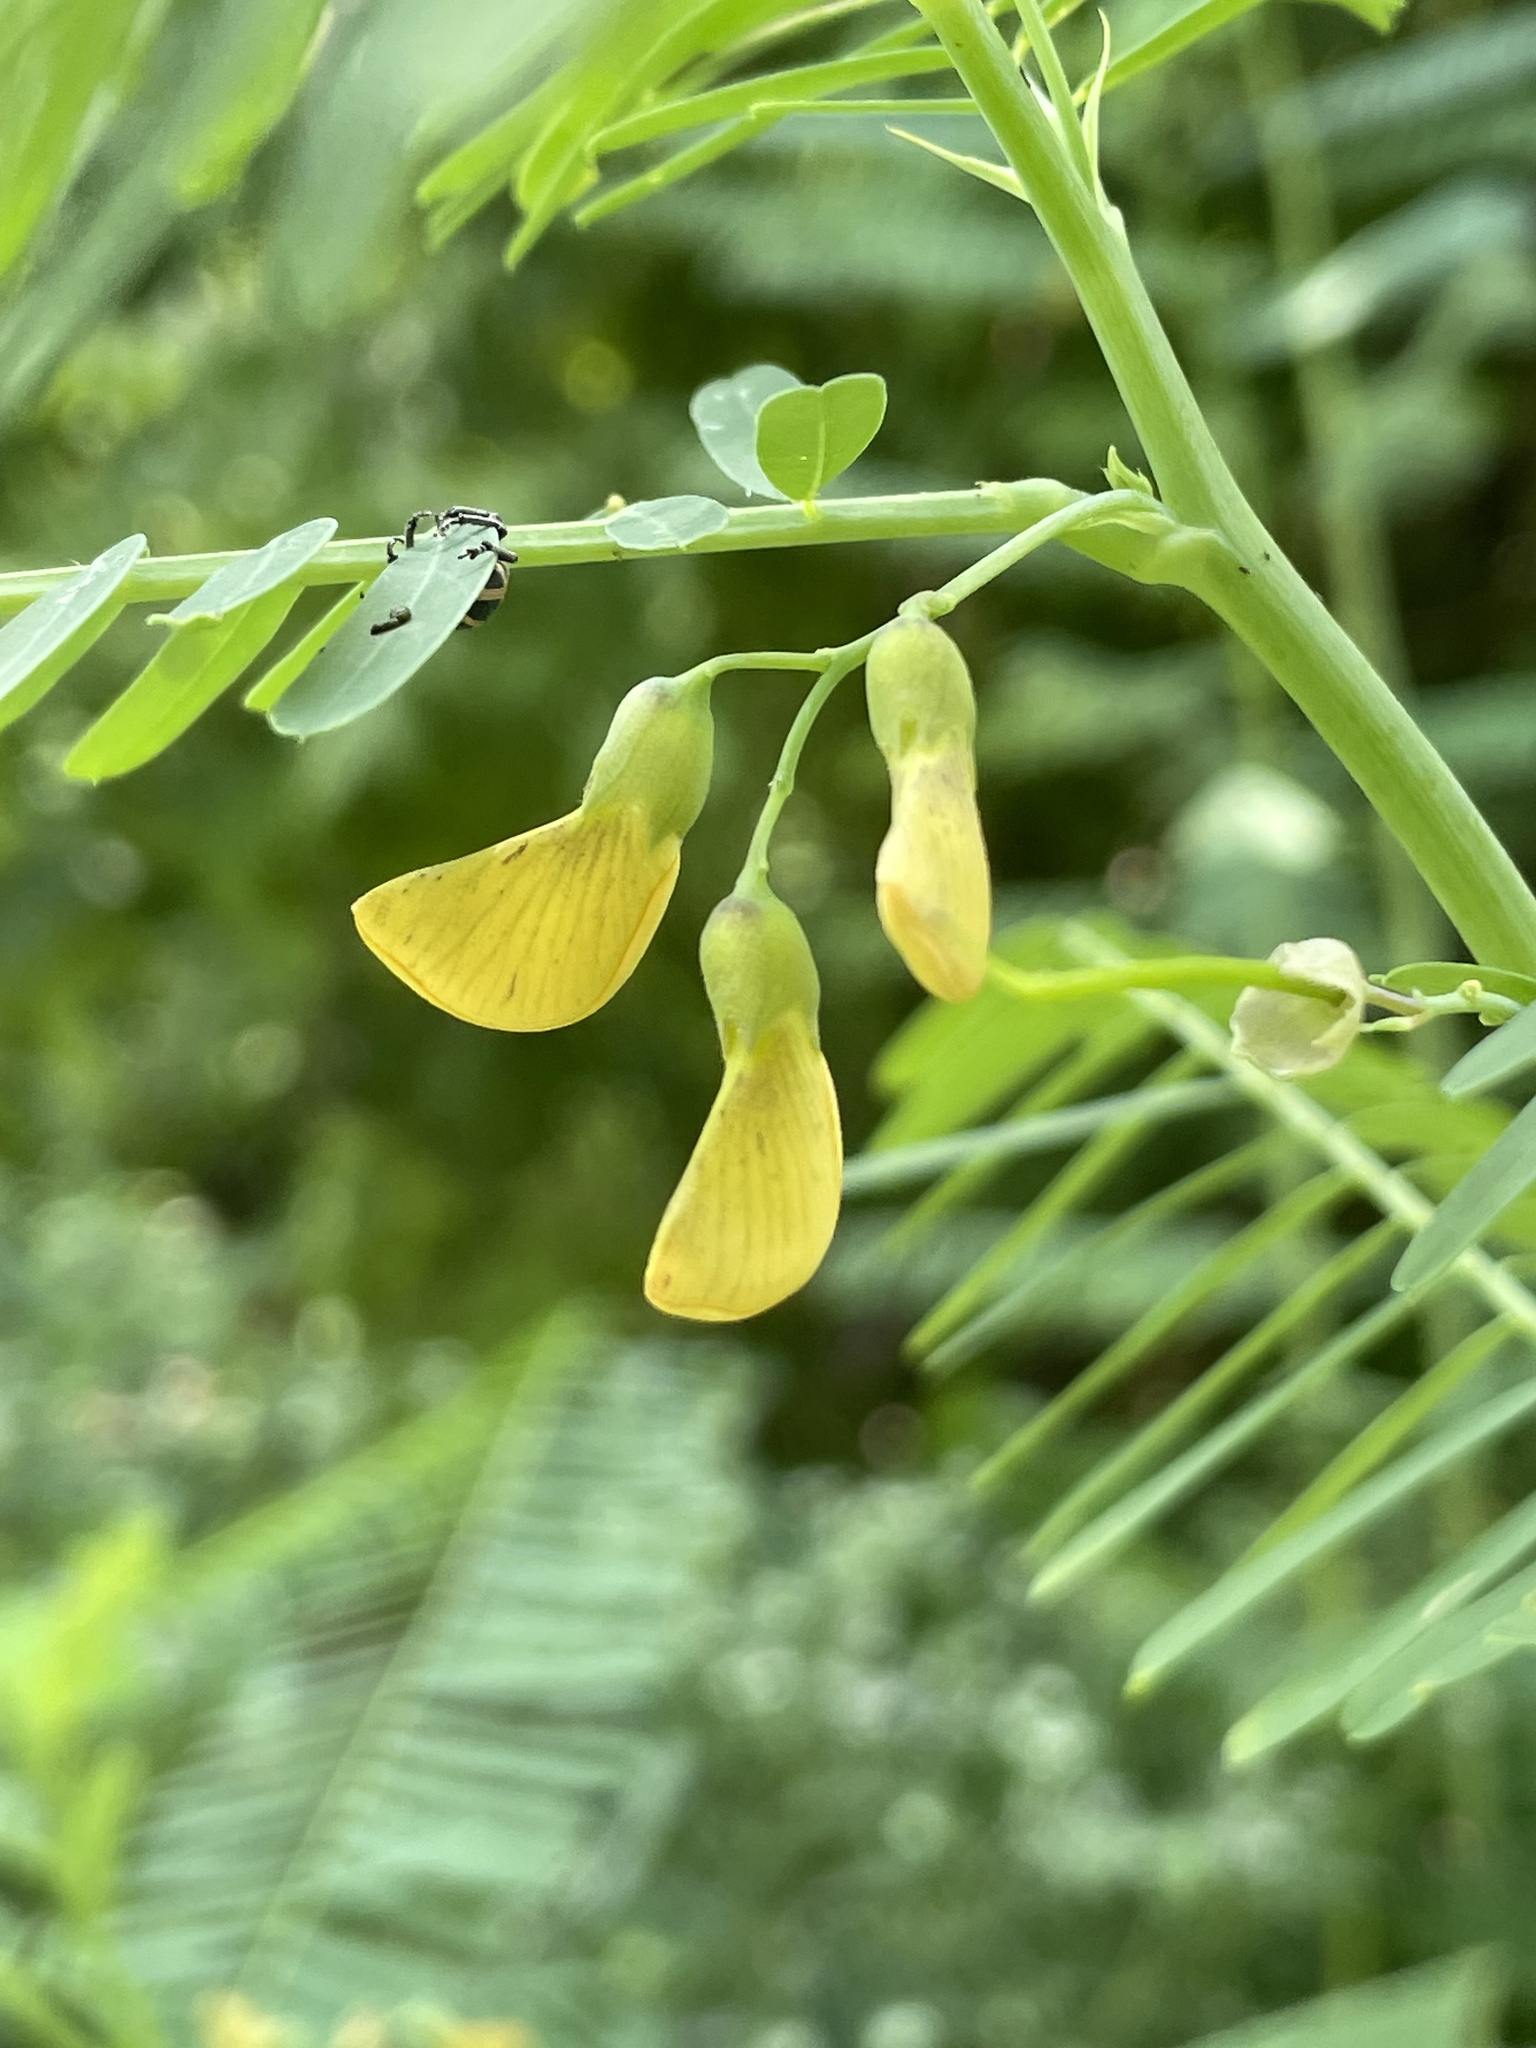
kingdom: Plantae
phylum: Tracheophyta
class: Magnoliopsida
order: Fabales
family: Fabaceae
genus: Sesbania
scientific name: Sesbania herbacea
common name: Bigpod sesbania
